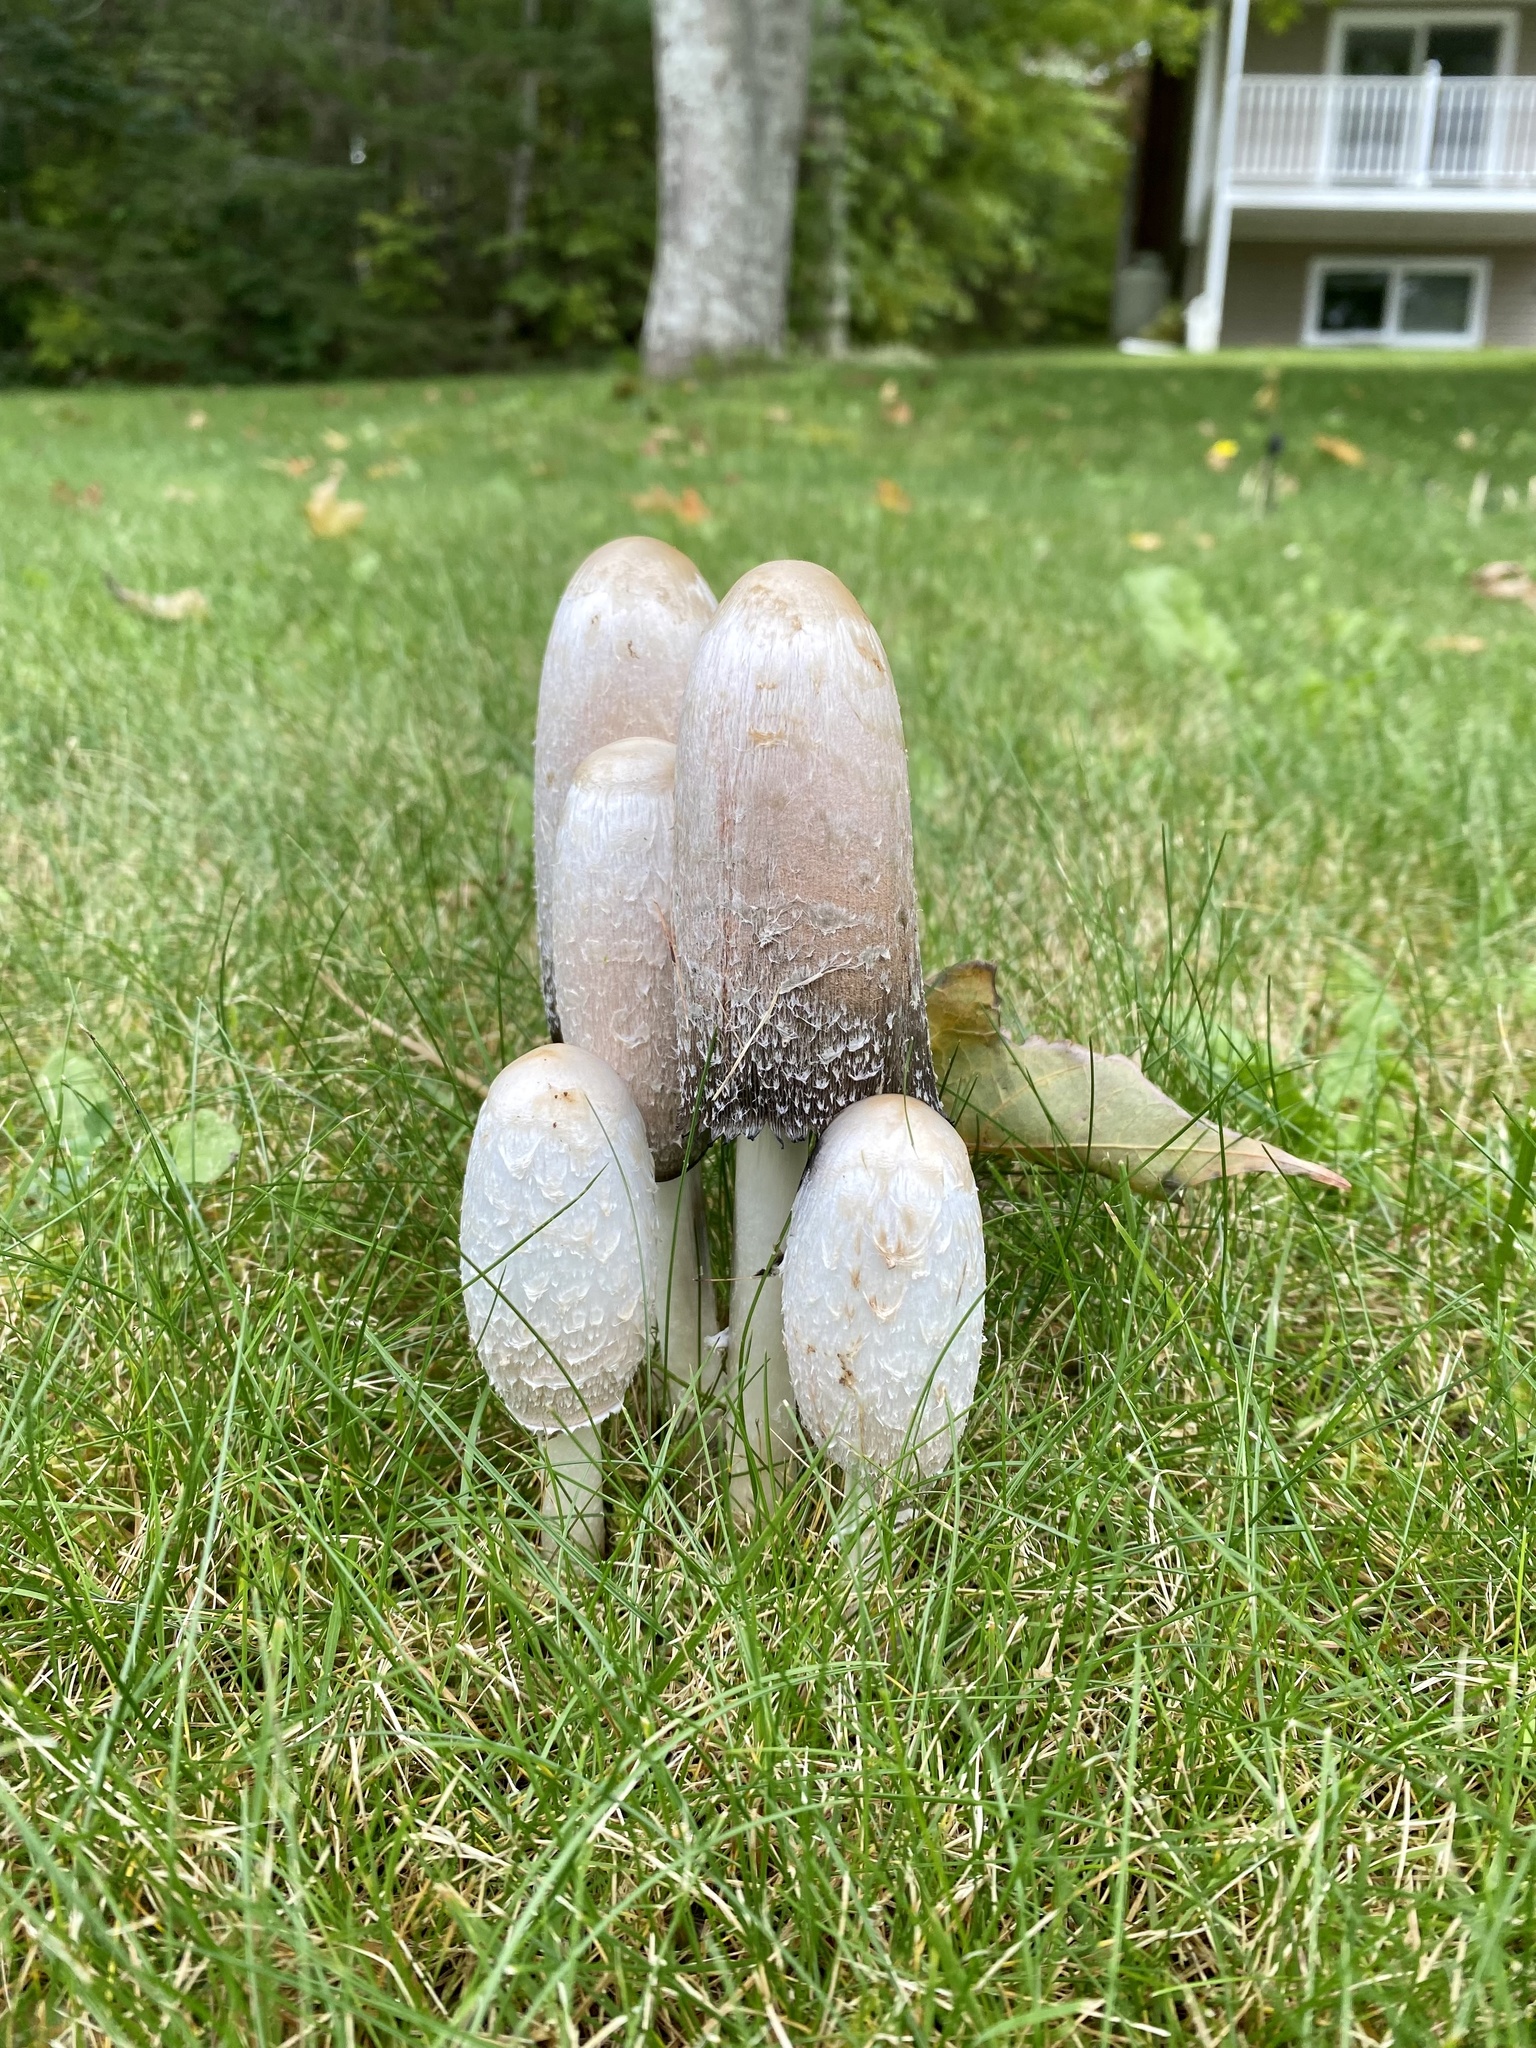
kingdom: Fungi
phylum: Basidiomycota
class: Agaricomycetes
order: Agaricales
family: Agaricaceae
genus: Coprinus
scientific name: Coprinus comatus
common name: Lawyer's wig
